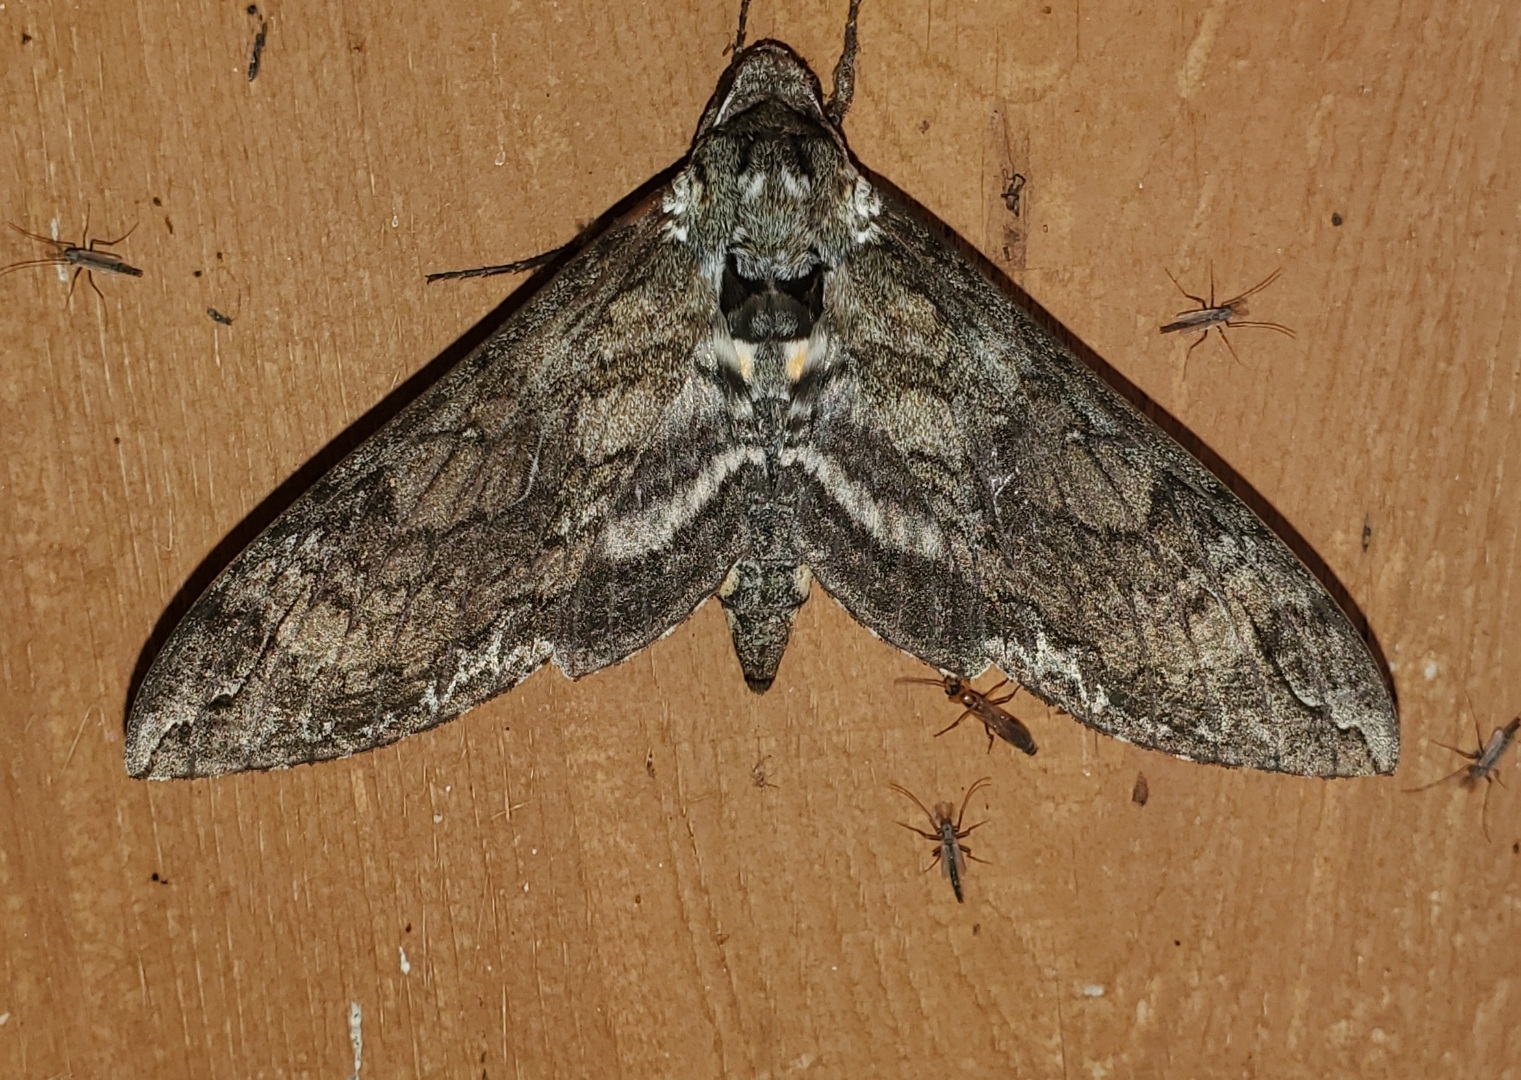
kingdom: Animalia
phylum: Arthropoda
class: Insecta
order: Lepidoptera
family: Sphingidae
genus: Manduca
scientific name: Manduca sexta
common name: Carolina sphinx
